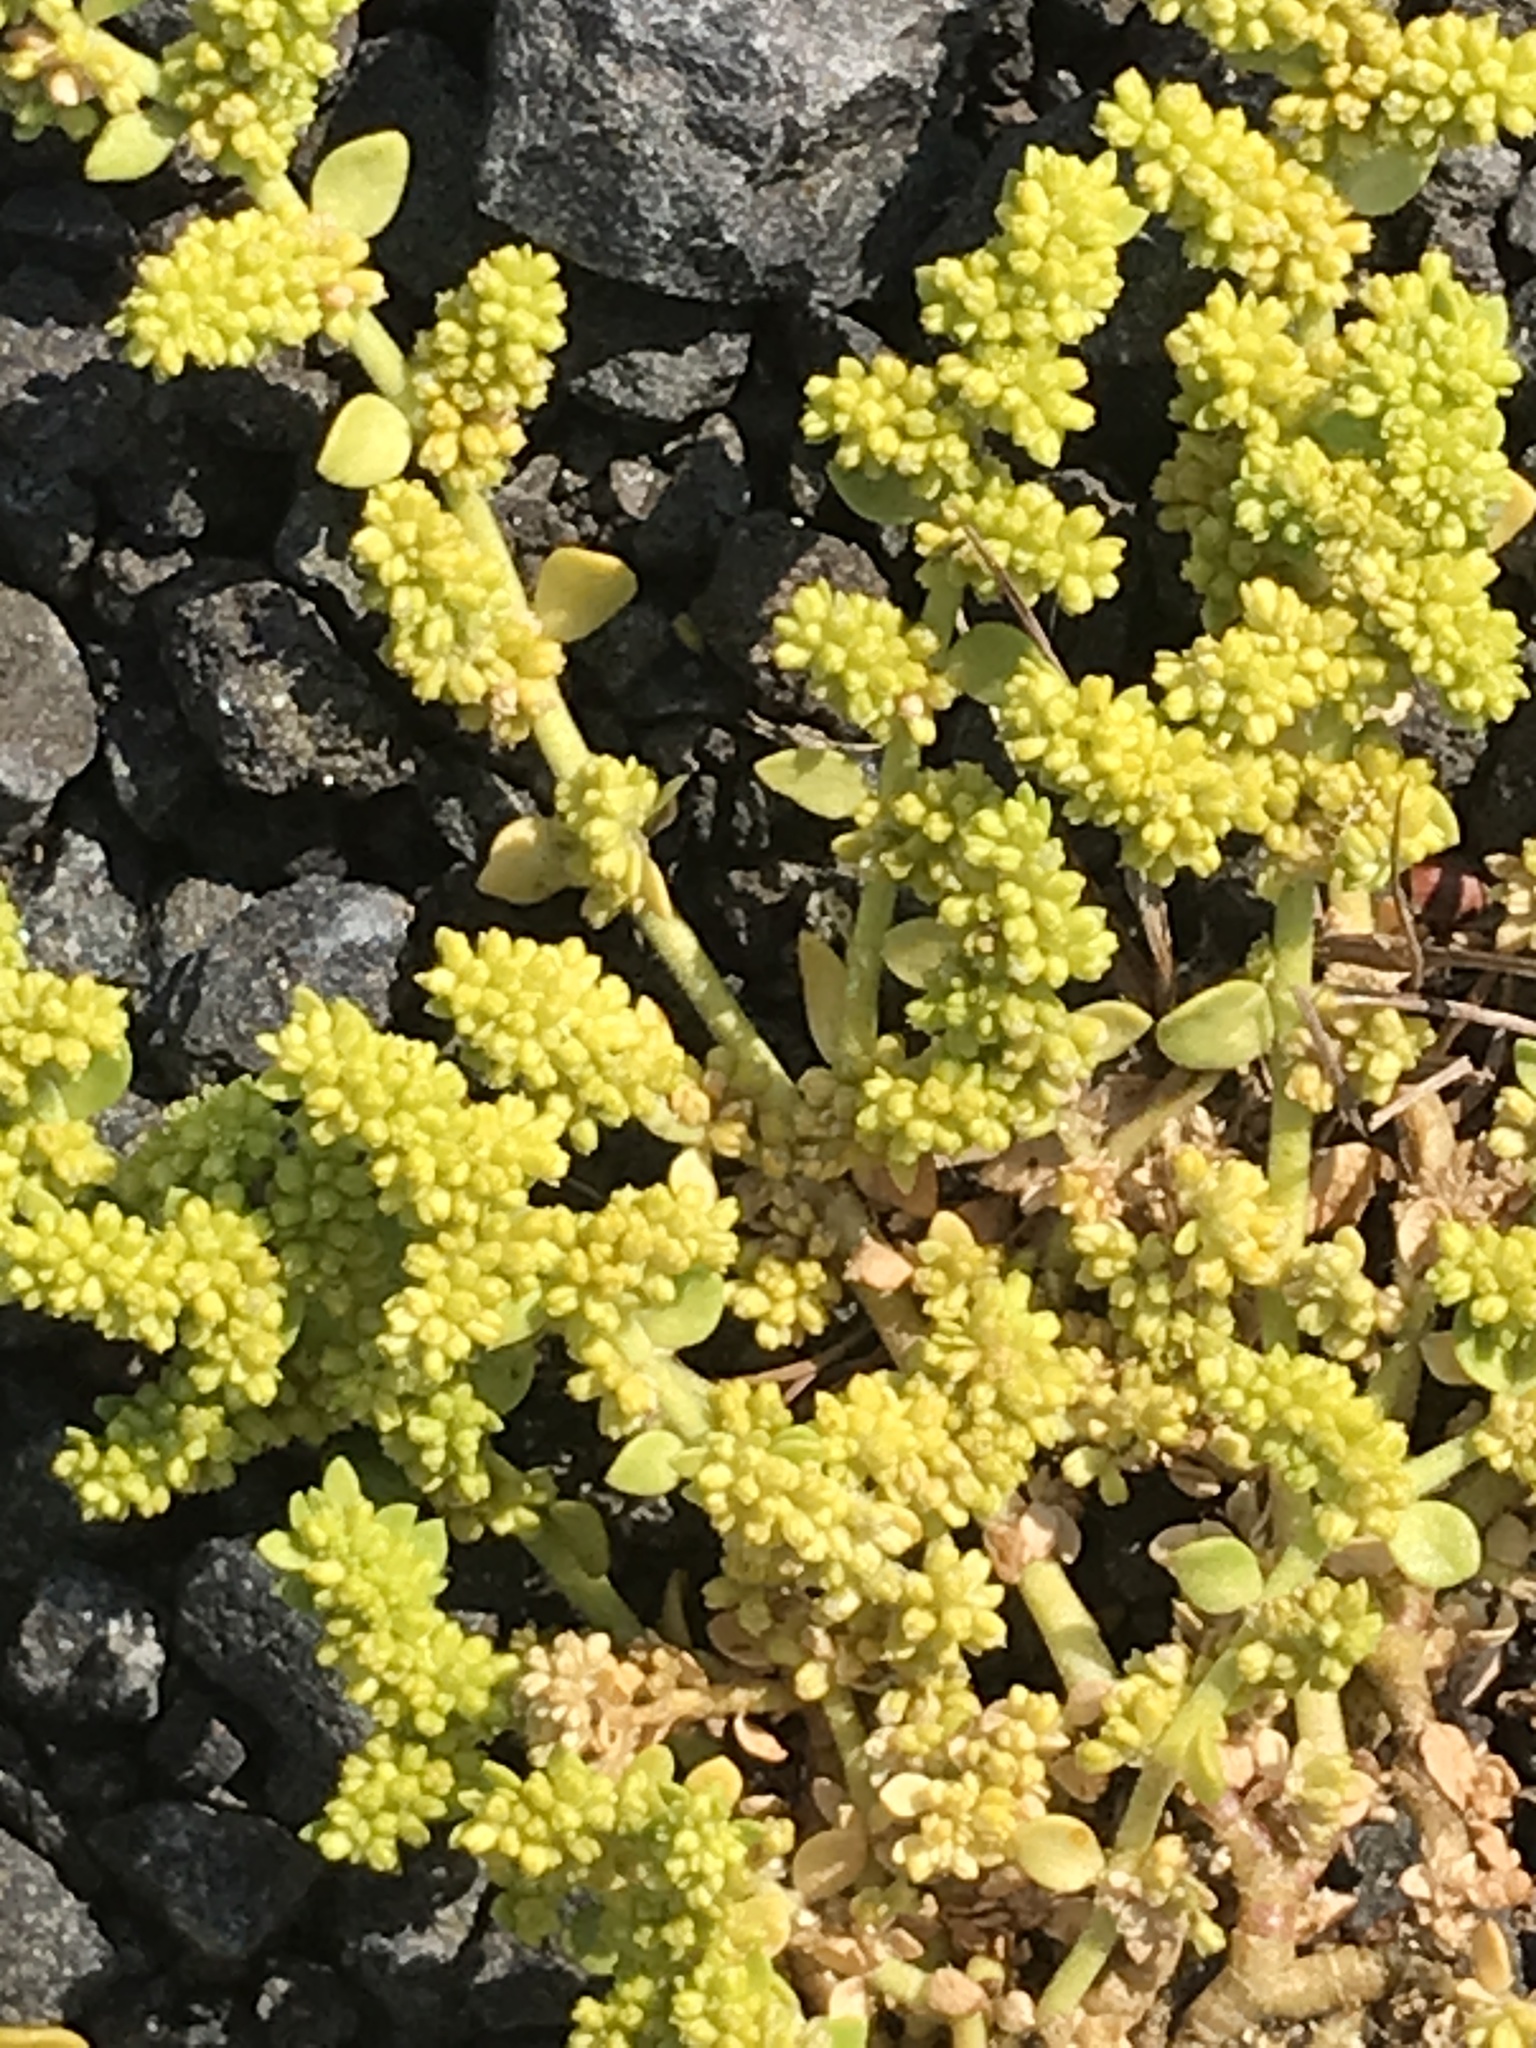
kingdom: Plantae
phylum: Tracheophyta
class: Magnoliopsida
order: Caryophyllales
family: Caryophyllaceae
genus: Herniaria
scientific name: Herniaria glabra
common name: Smooth rupturewort
